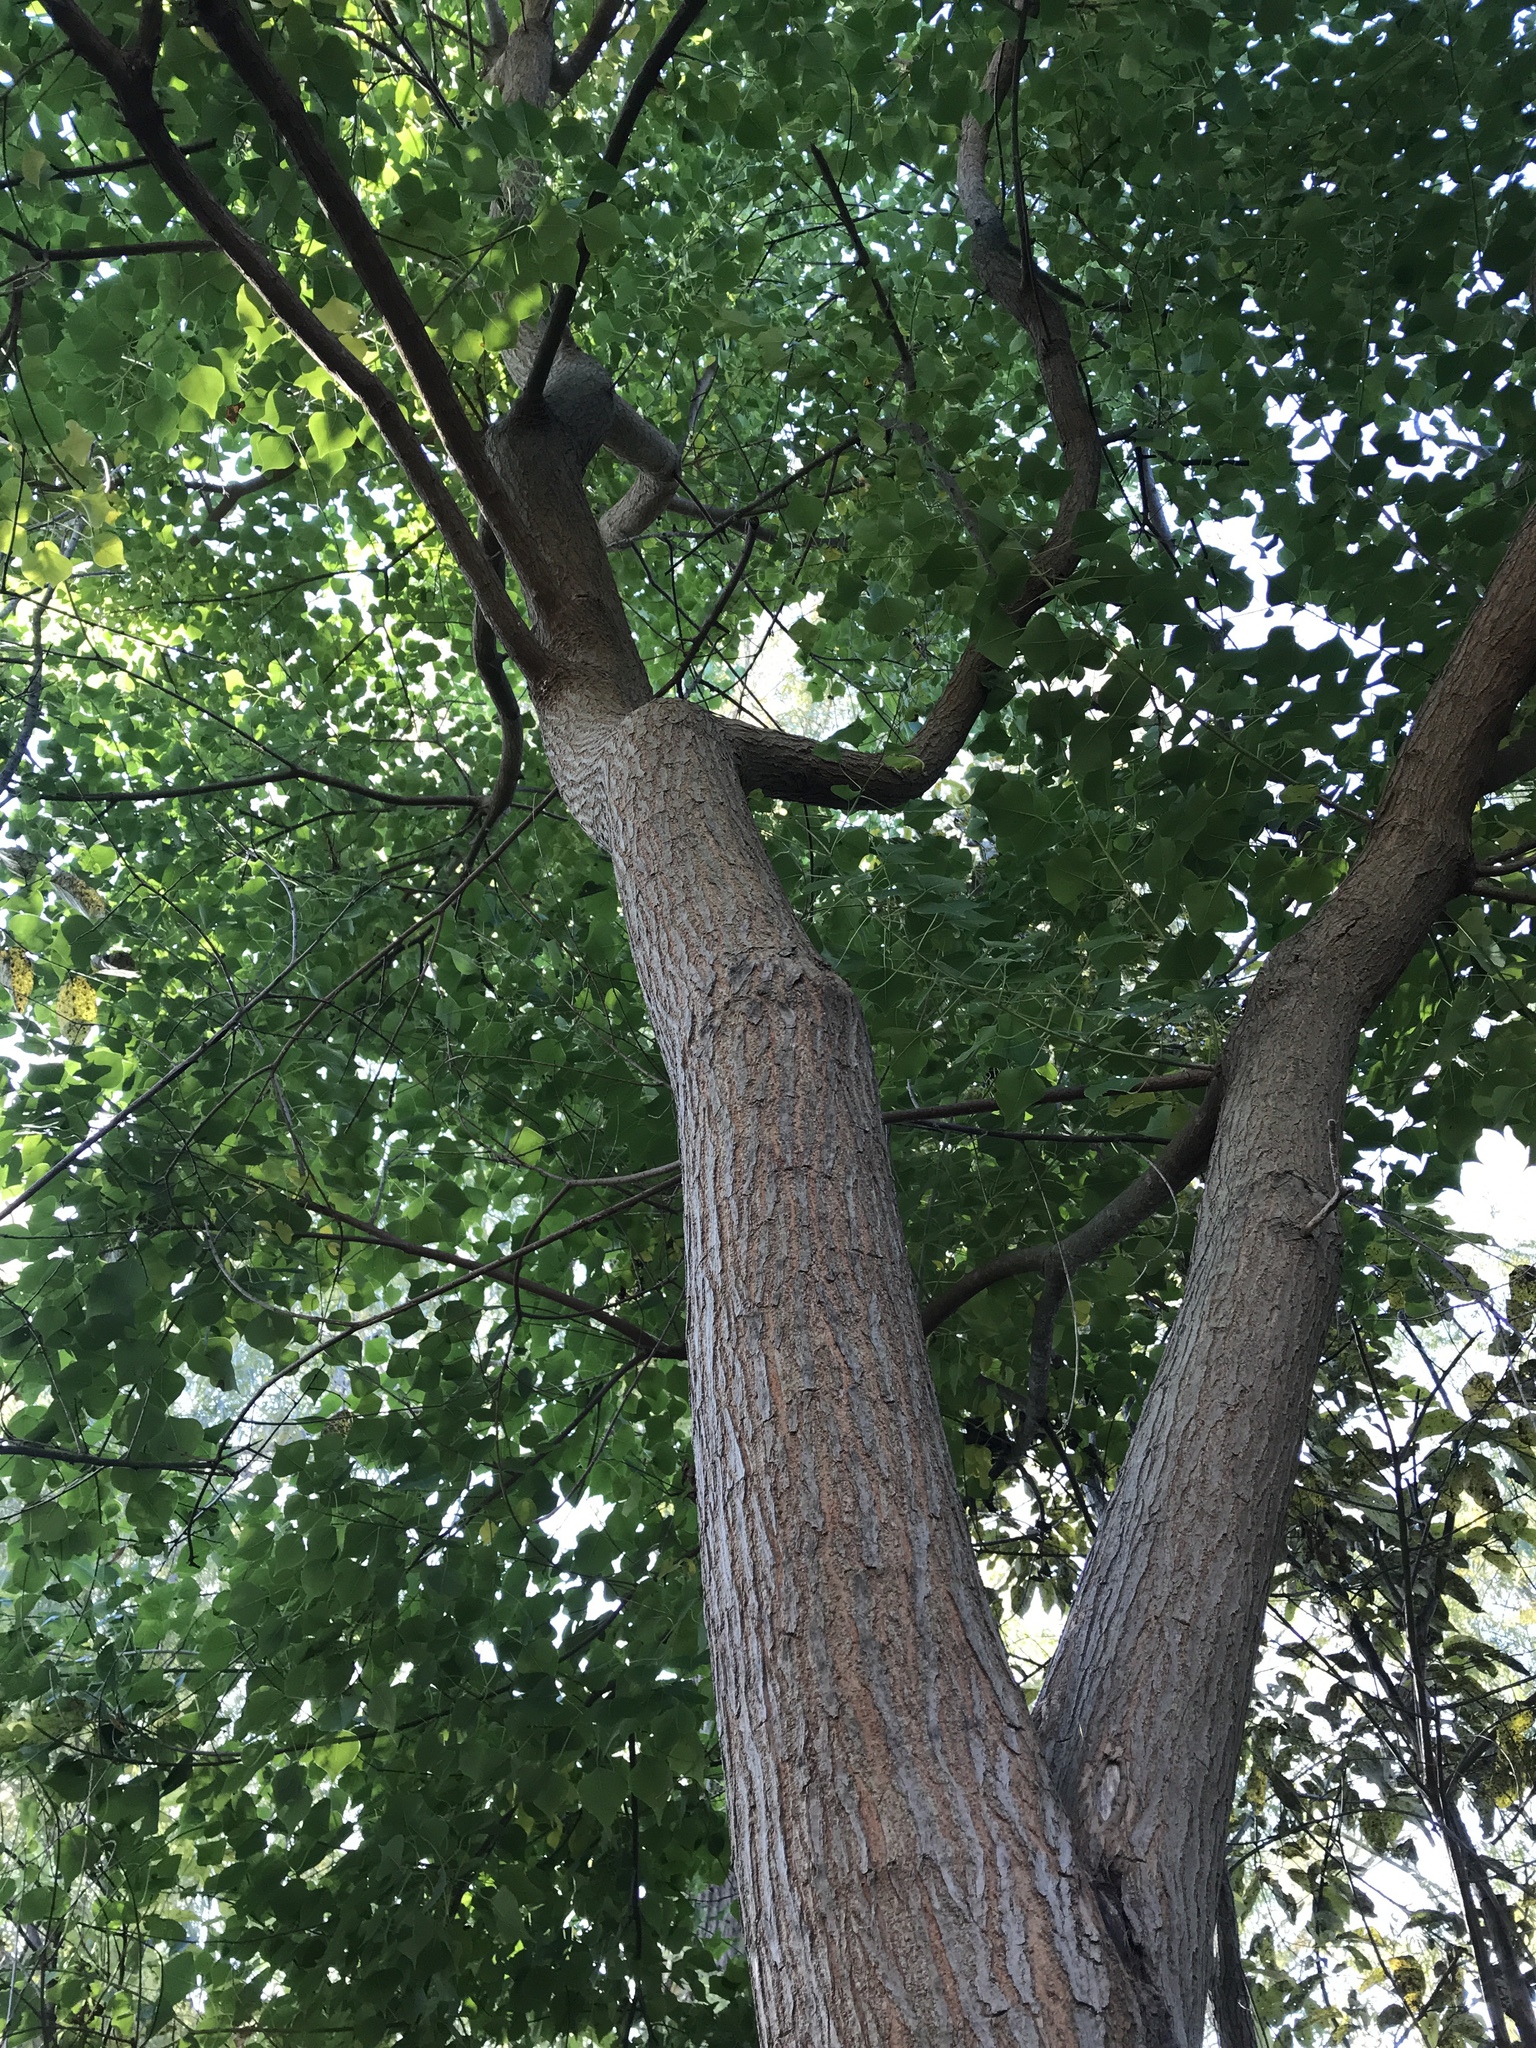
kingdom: Plantae
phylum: Tracheophyta
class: Magnoliopsida
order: Malpighiales
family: Euphorbiaceae
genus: Triadica
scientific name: Triadica sebifera
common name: Chinese tallow
